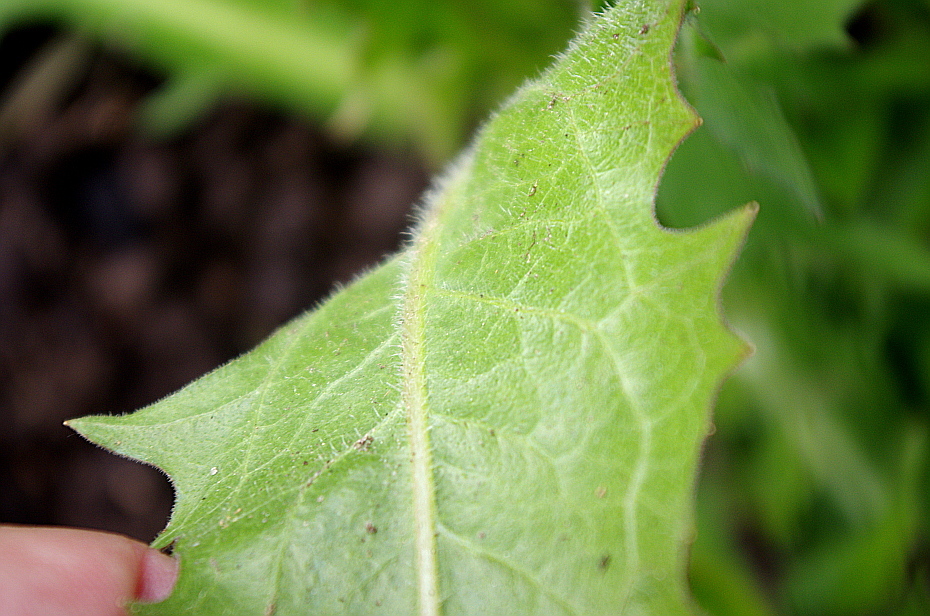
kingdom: Plantae
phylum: Tracheophyta
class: Magnoliopsida
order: Asterales
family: Asteraceae
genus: Cichorium
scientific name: Cichorium intybus
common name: Chicory
